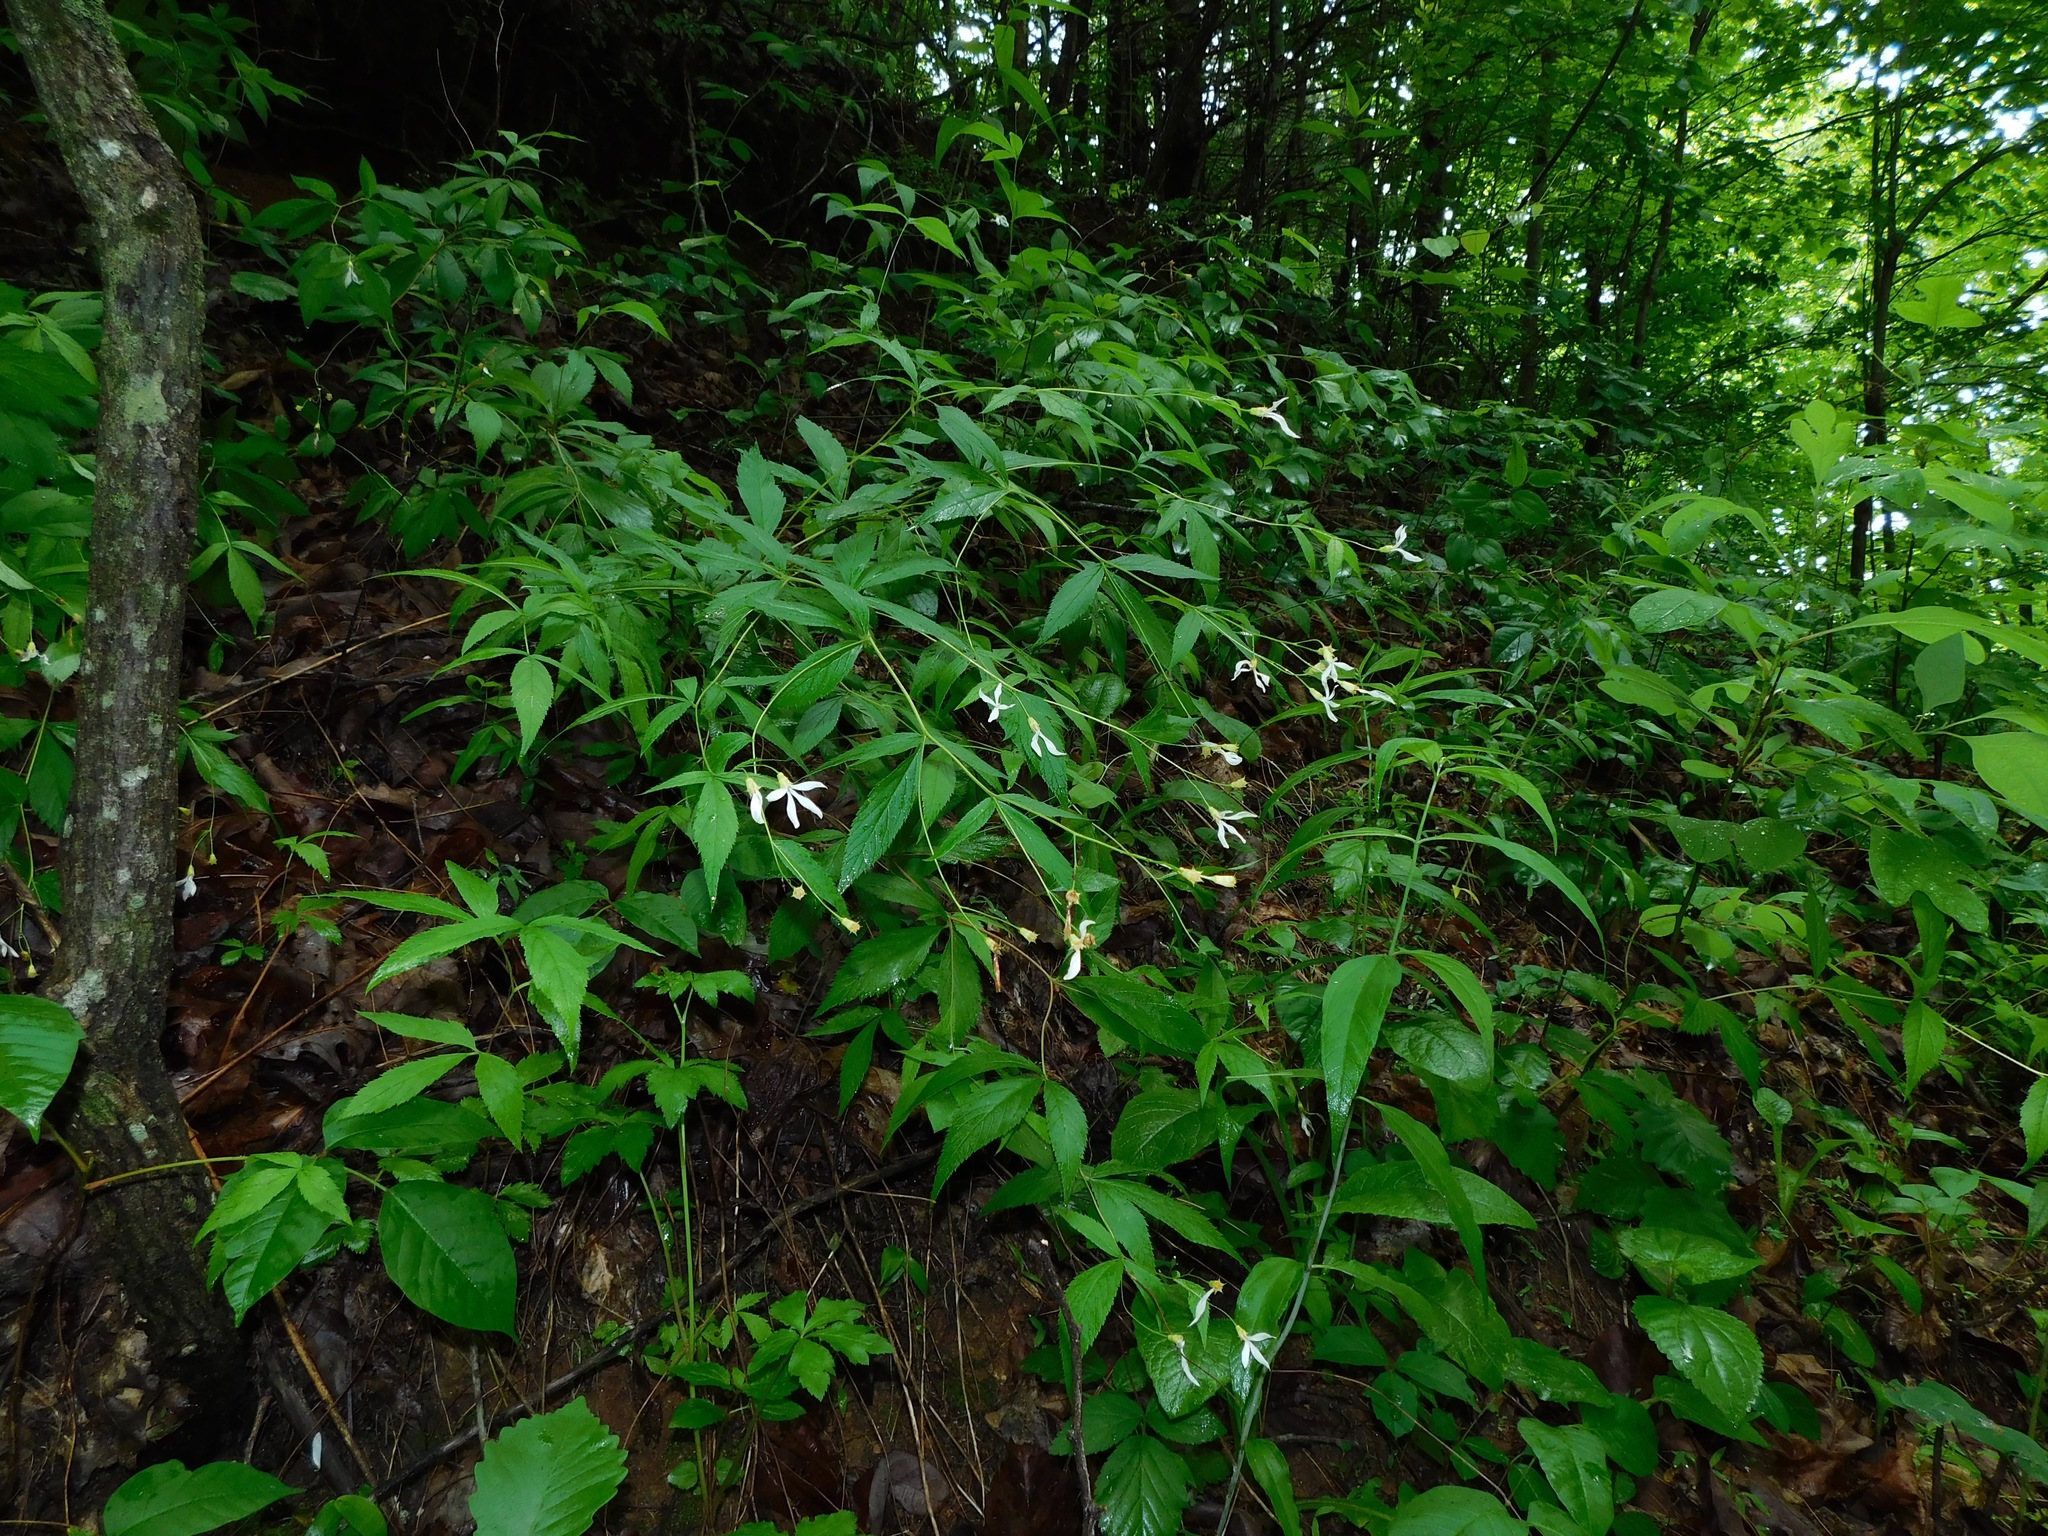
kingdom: Plantae
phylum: Tracheophyta
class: Magnoliopsida
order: Rosales
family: Rosaceae
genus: Gillenia
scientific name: Gillenia trifoliata
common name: Bowman's-root
